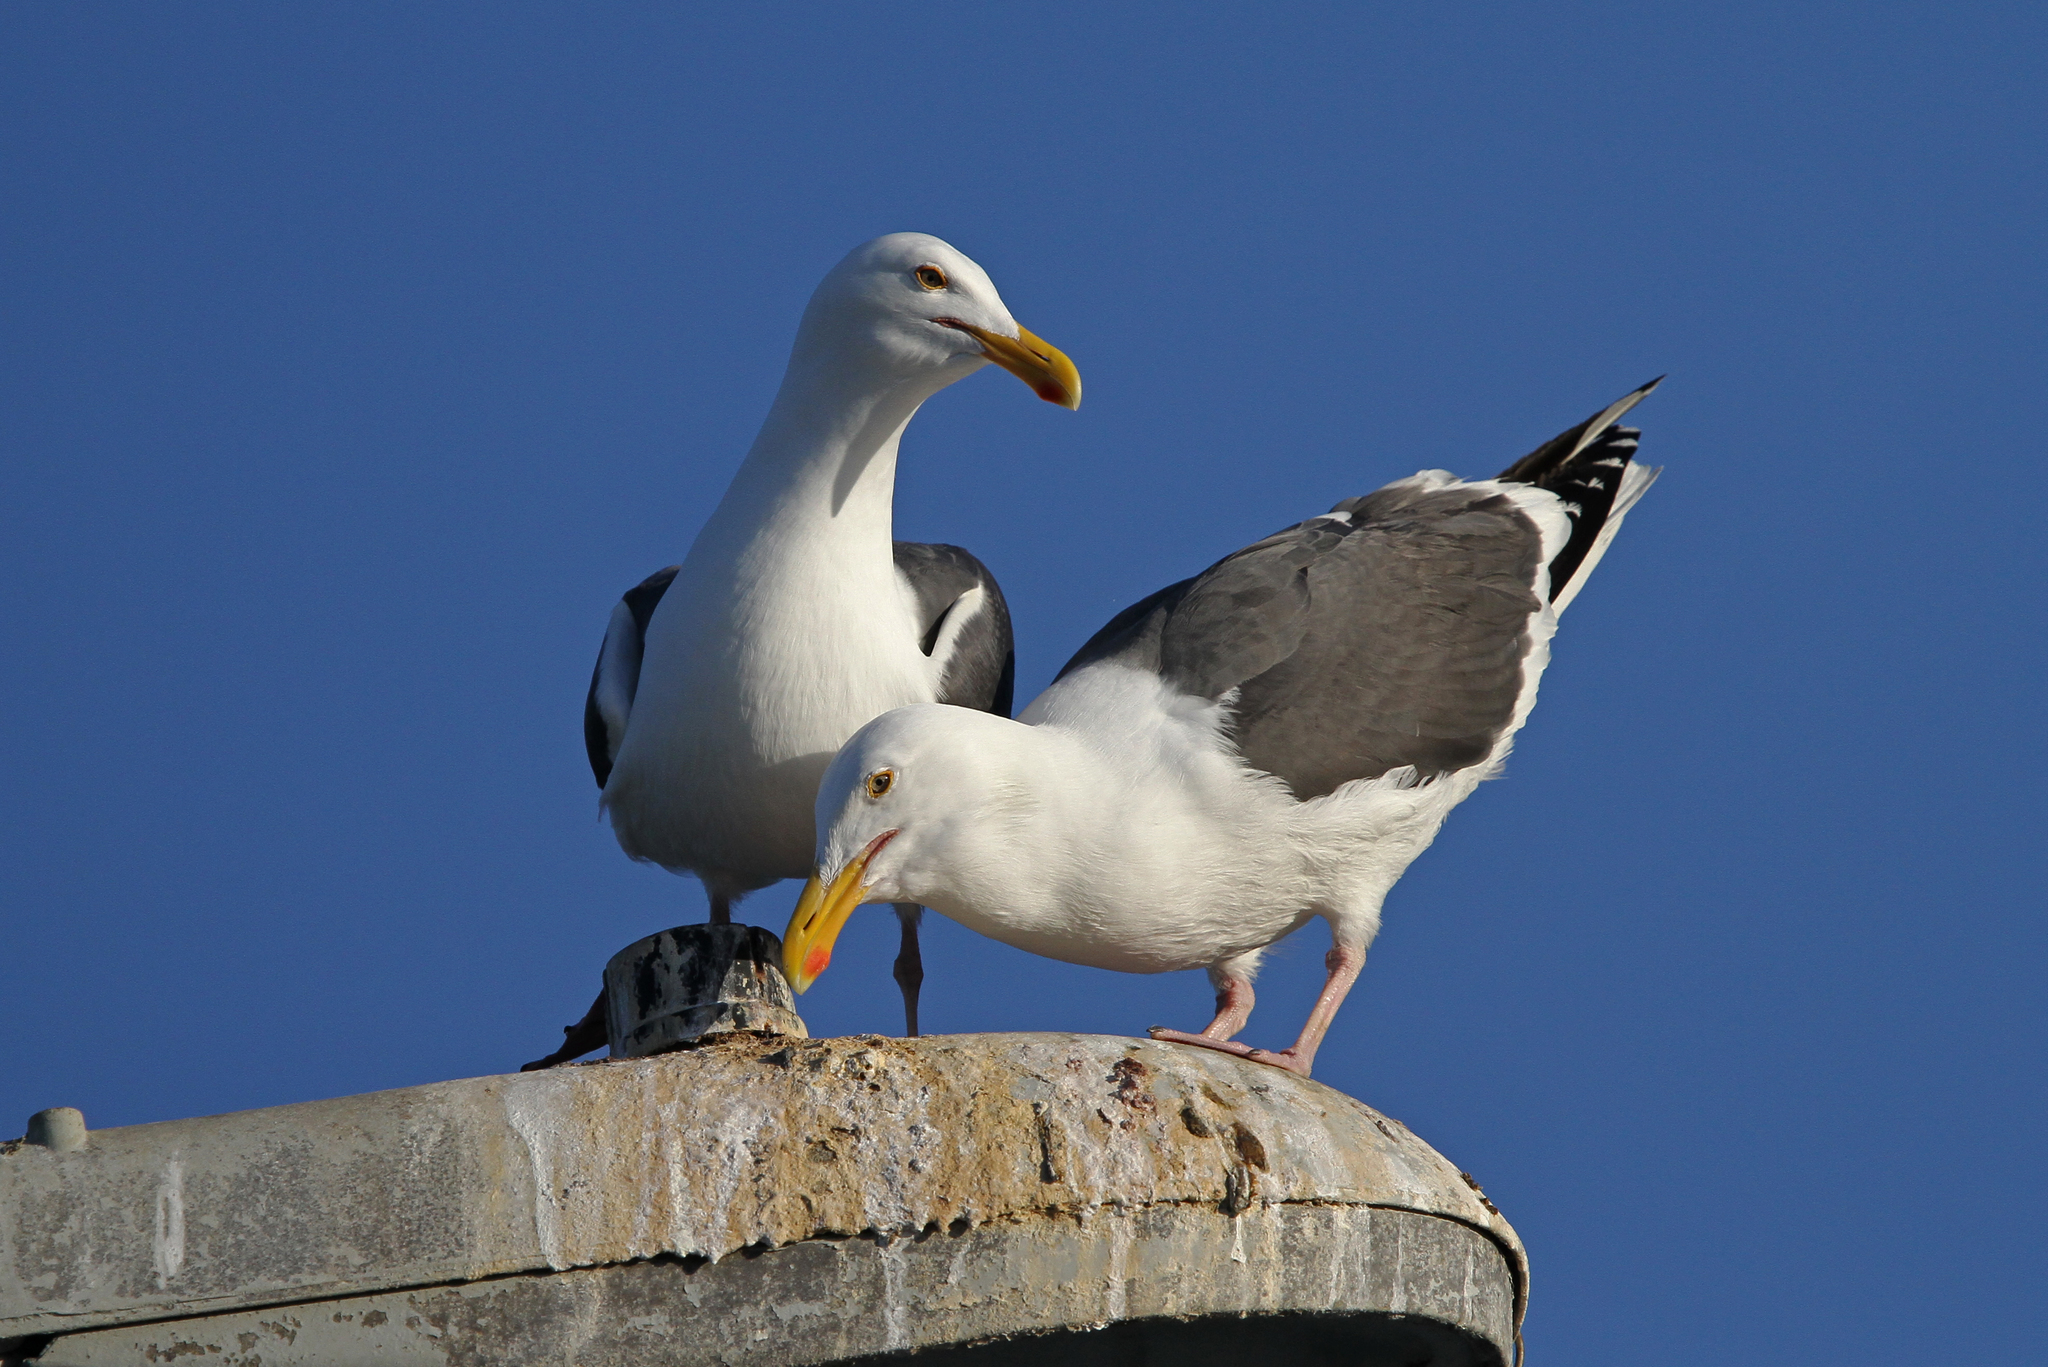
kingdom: Animalia
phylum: Chordata
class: Aves
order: Charadriiformes
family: Laridae
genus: Larus
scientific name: Larus occidentalis
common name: Western gull
